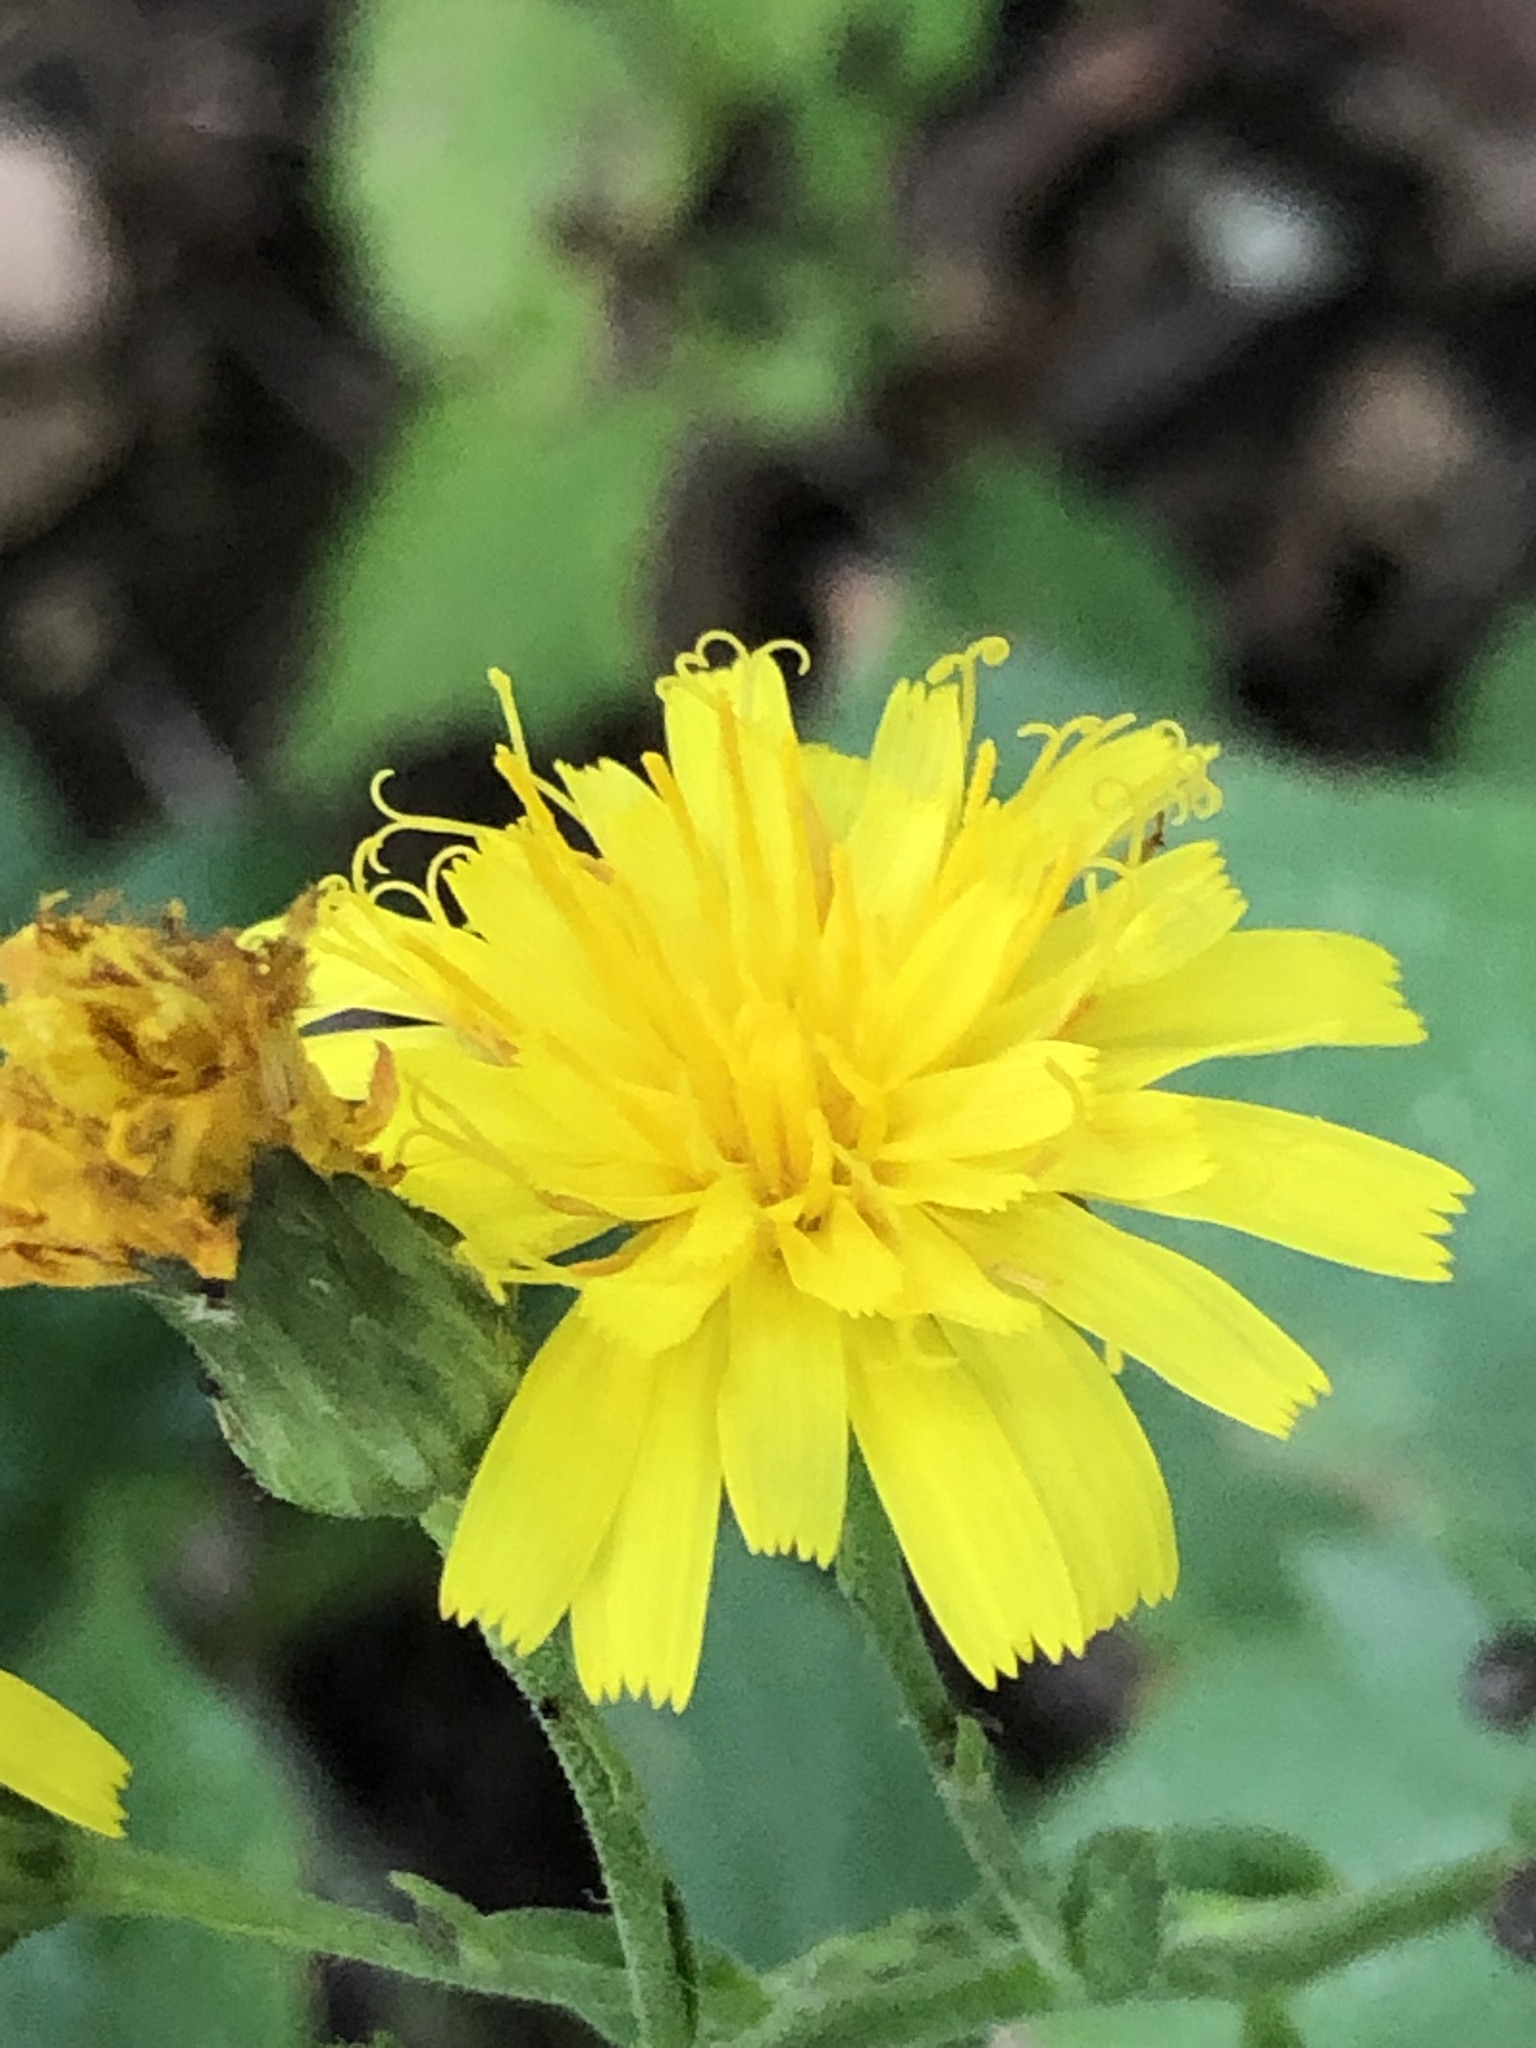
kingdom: Plantae
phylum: Tracheophyta
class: Magnoliopsida
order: Asterales
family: Asteraceae
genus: Pilosella
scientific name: Pilosella piloselloides
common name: Glaucous king-devil
